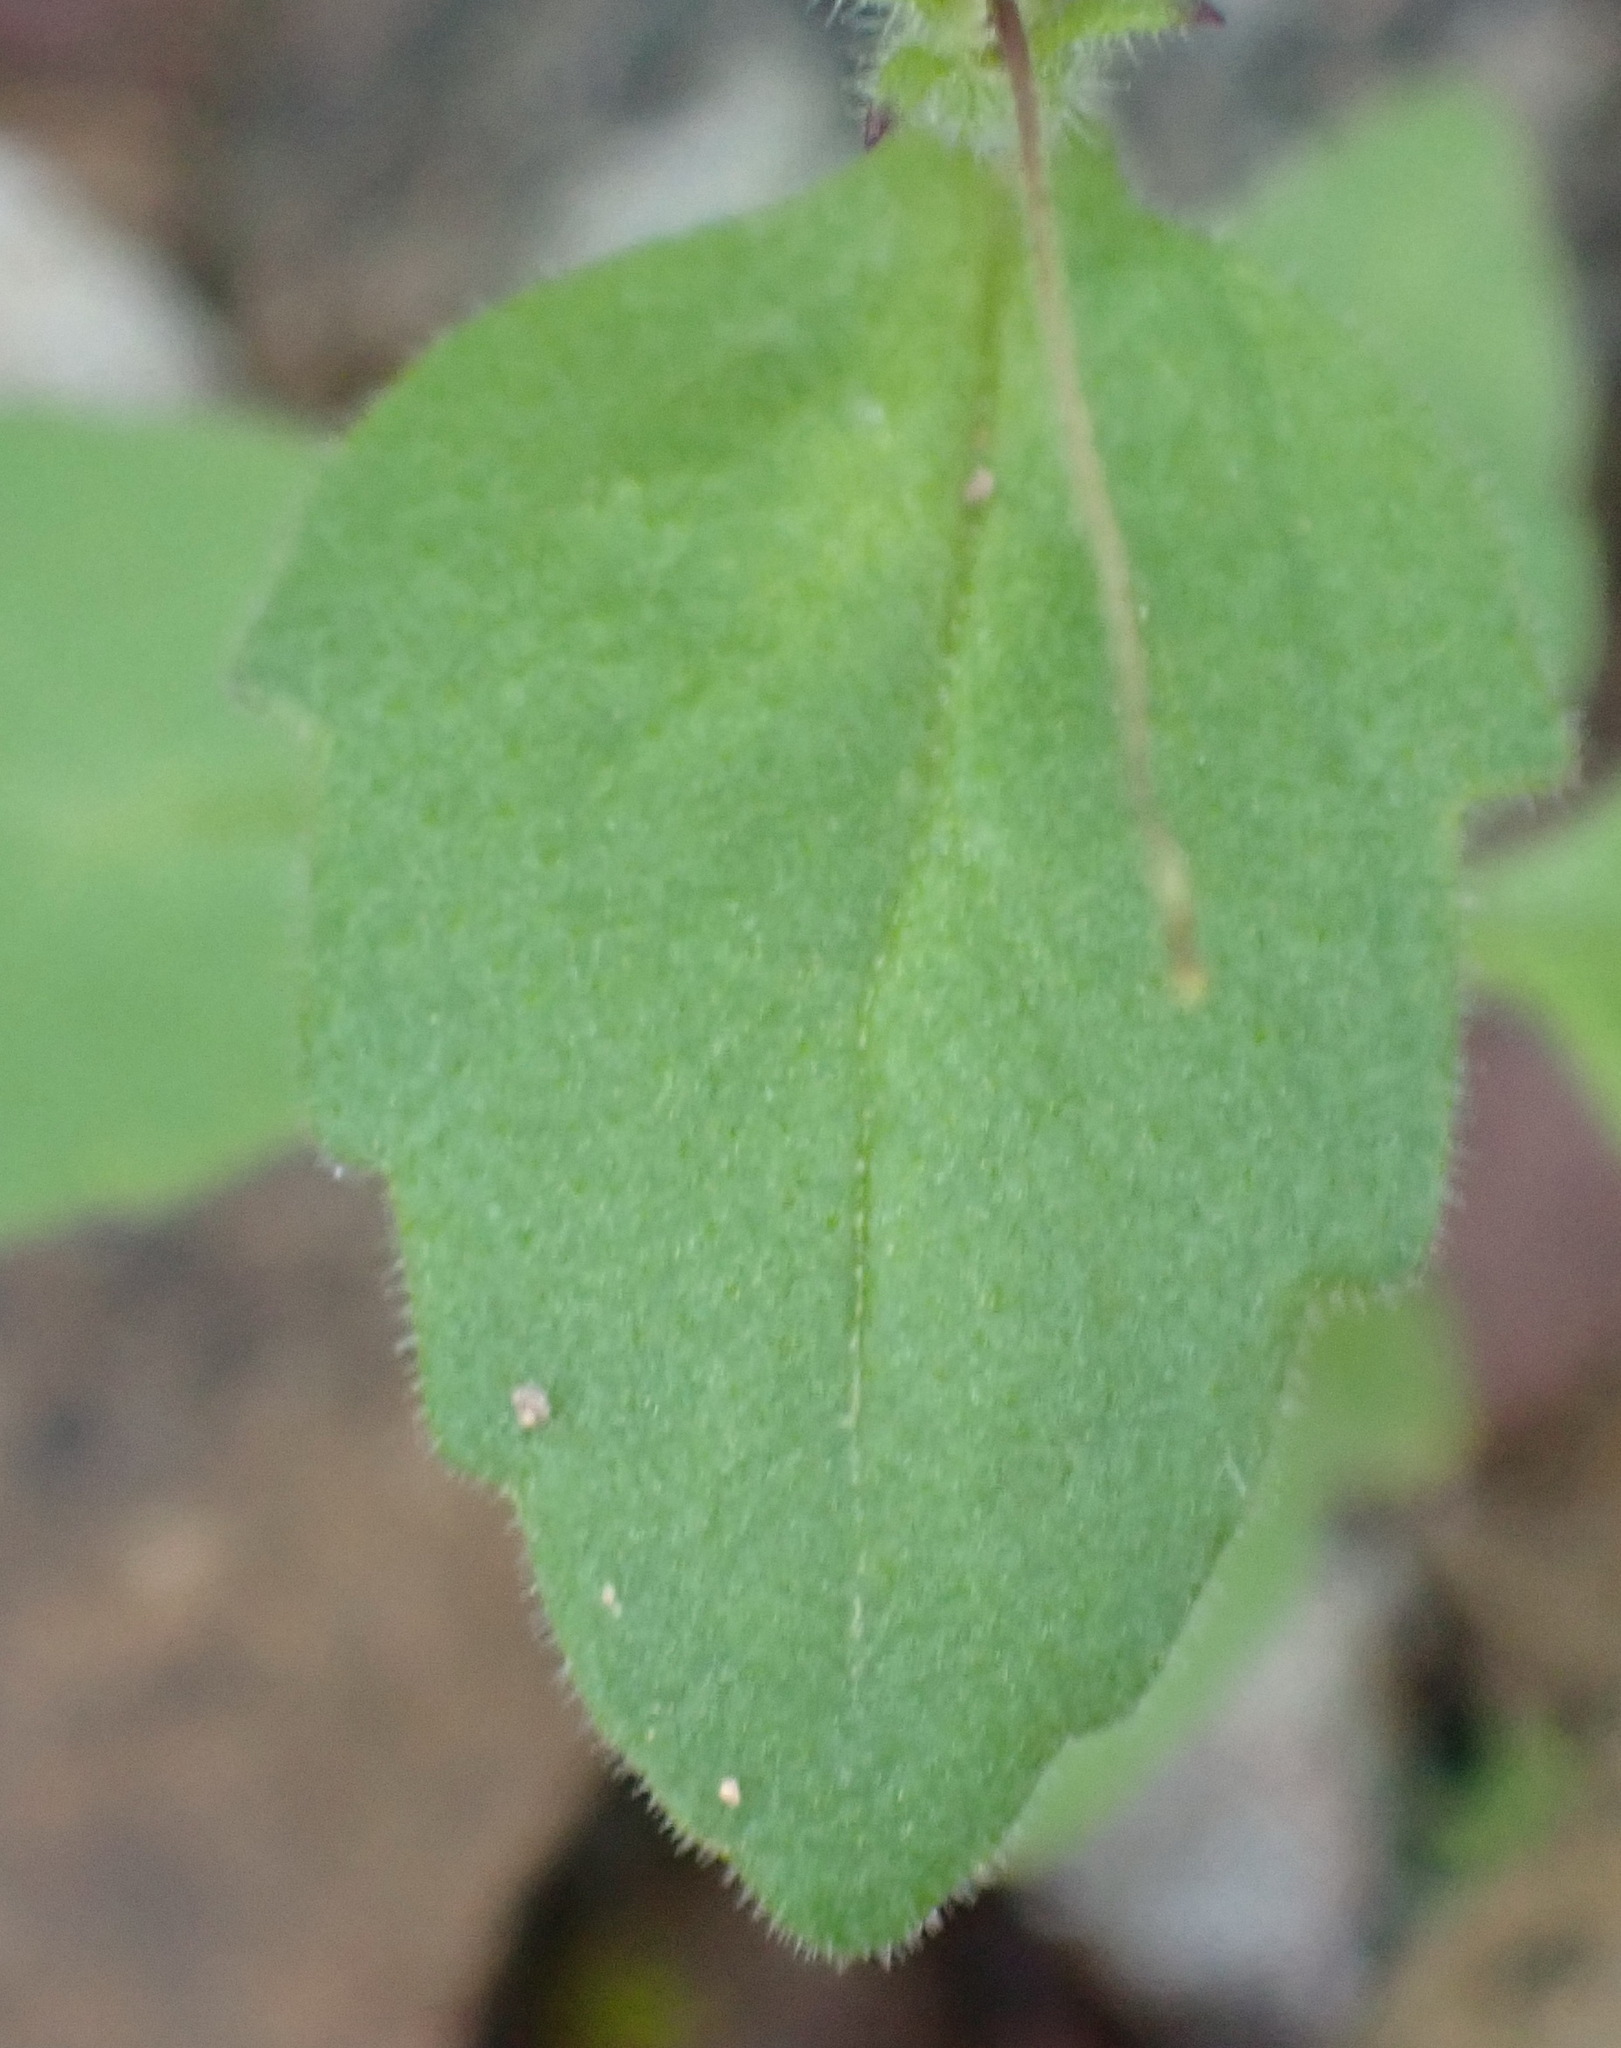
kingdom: Plantae
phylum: Tracheophyta
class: Magnoliopsida
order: Lamiales
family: Scrophulariaceae
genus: Lyperia
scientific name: Lyperia antirrhinoides
